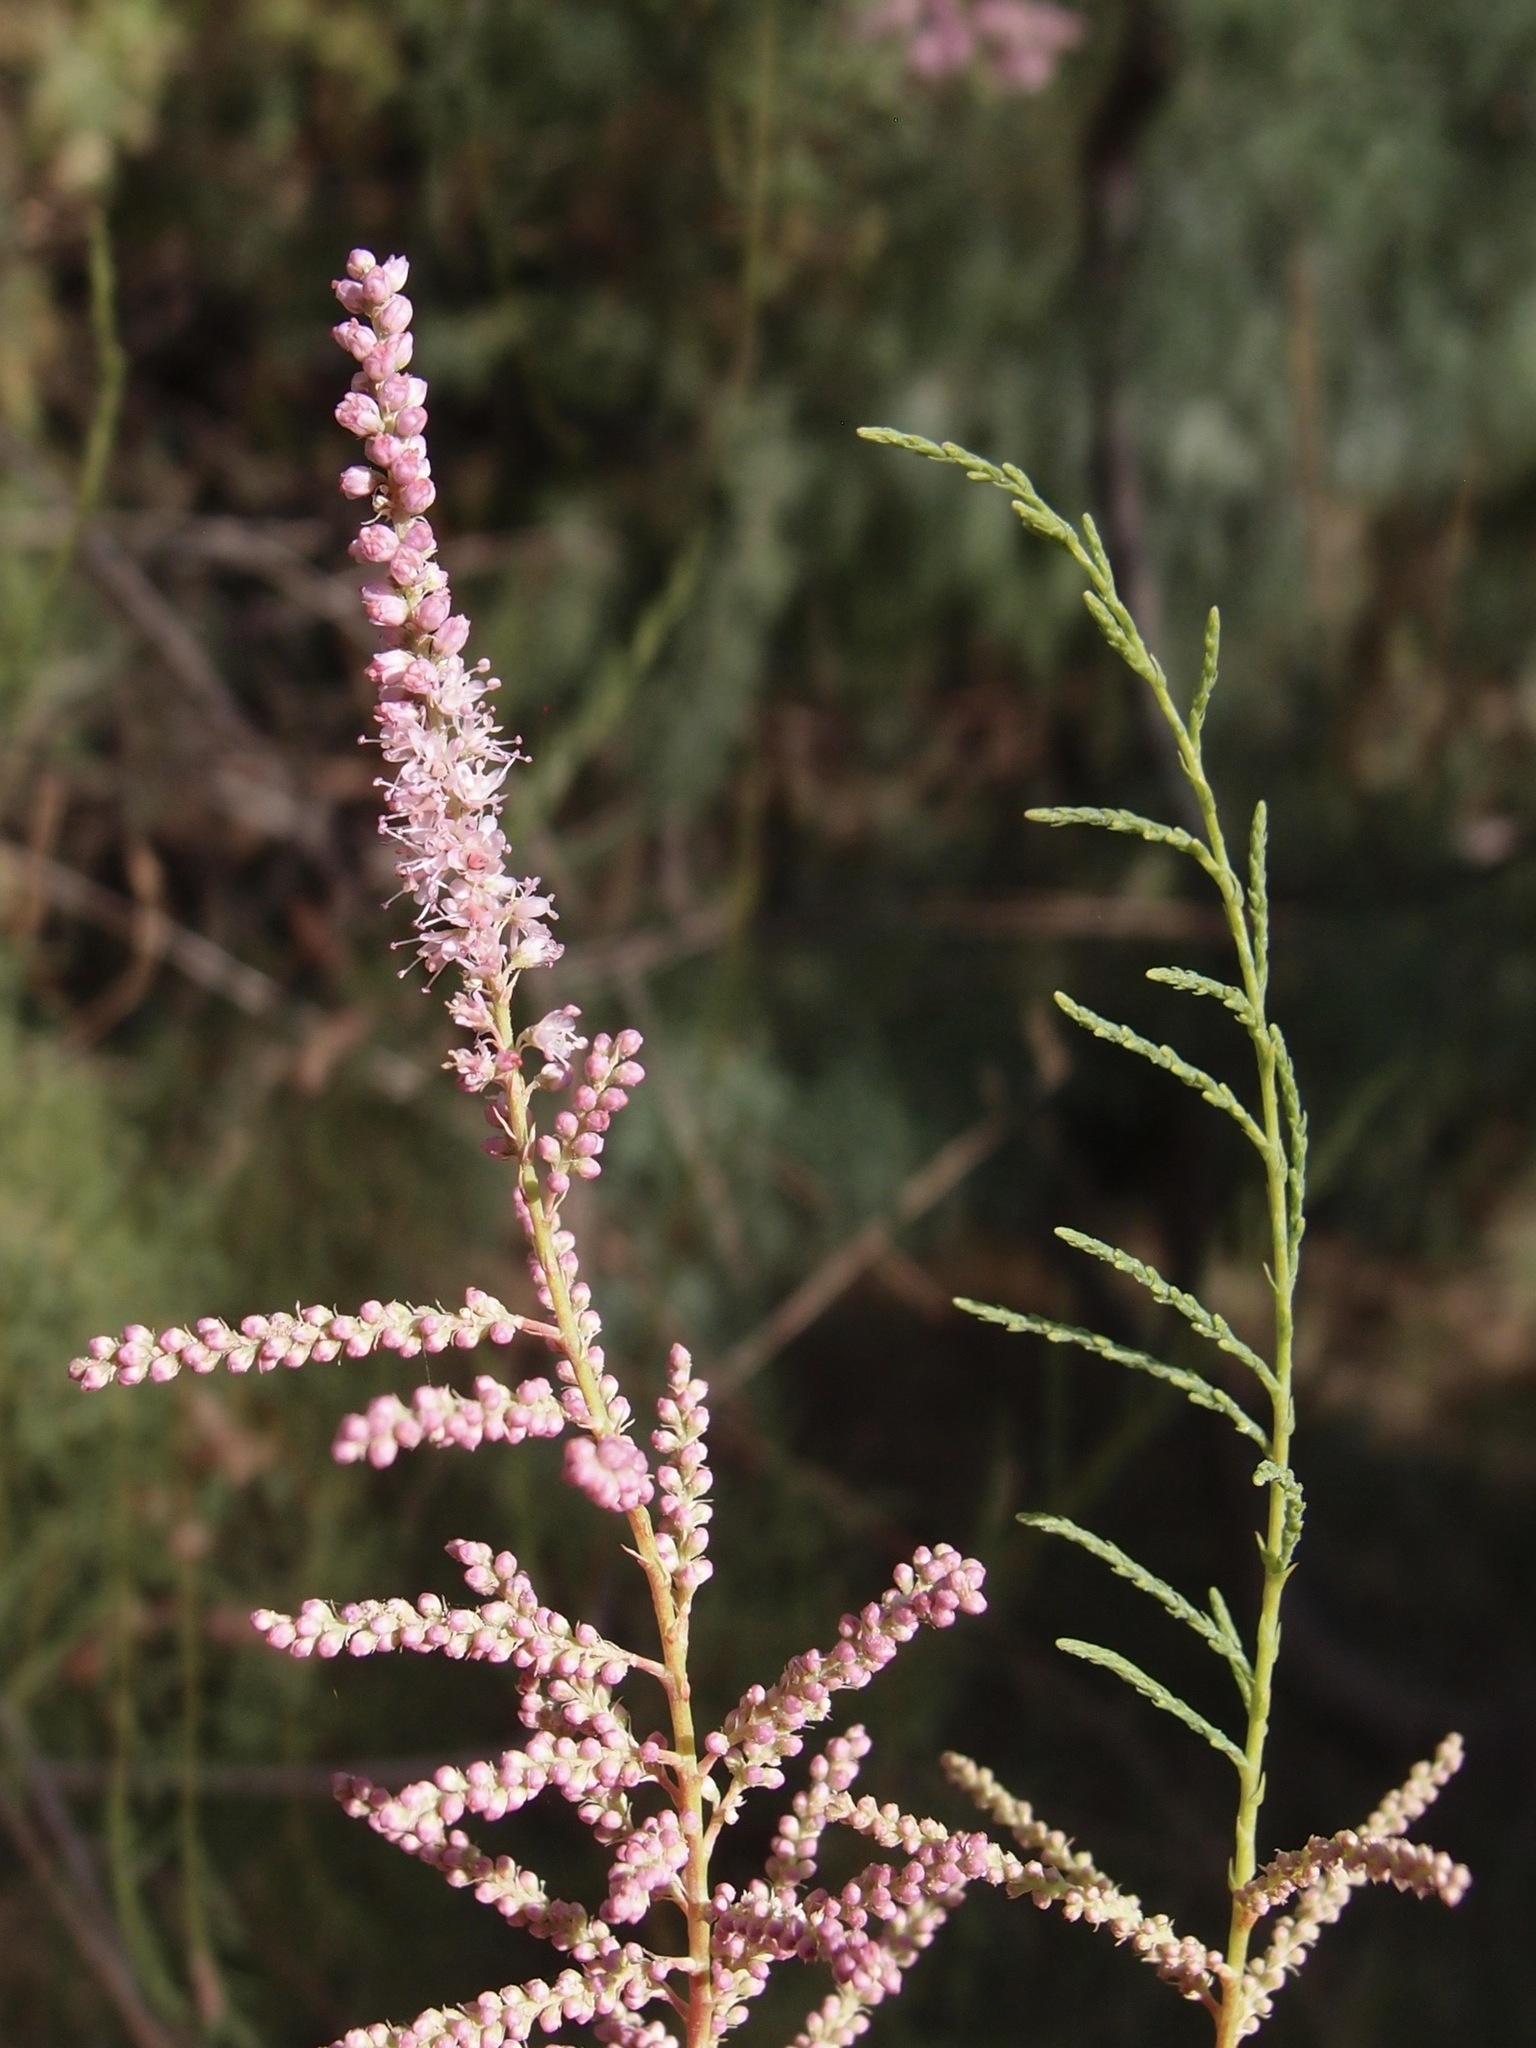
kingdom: Plantae
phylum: Tracheophyta
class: Magnoliopsida
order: Caryophyllales
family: Tamaricaceae
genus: Tamarix
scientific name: Tamarix
